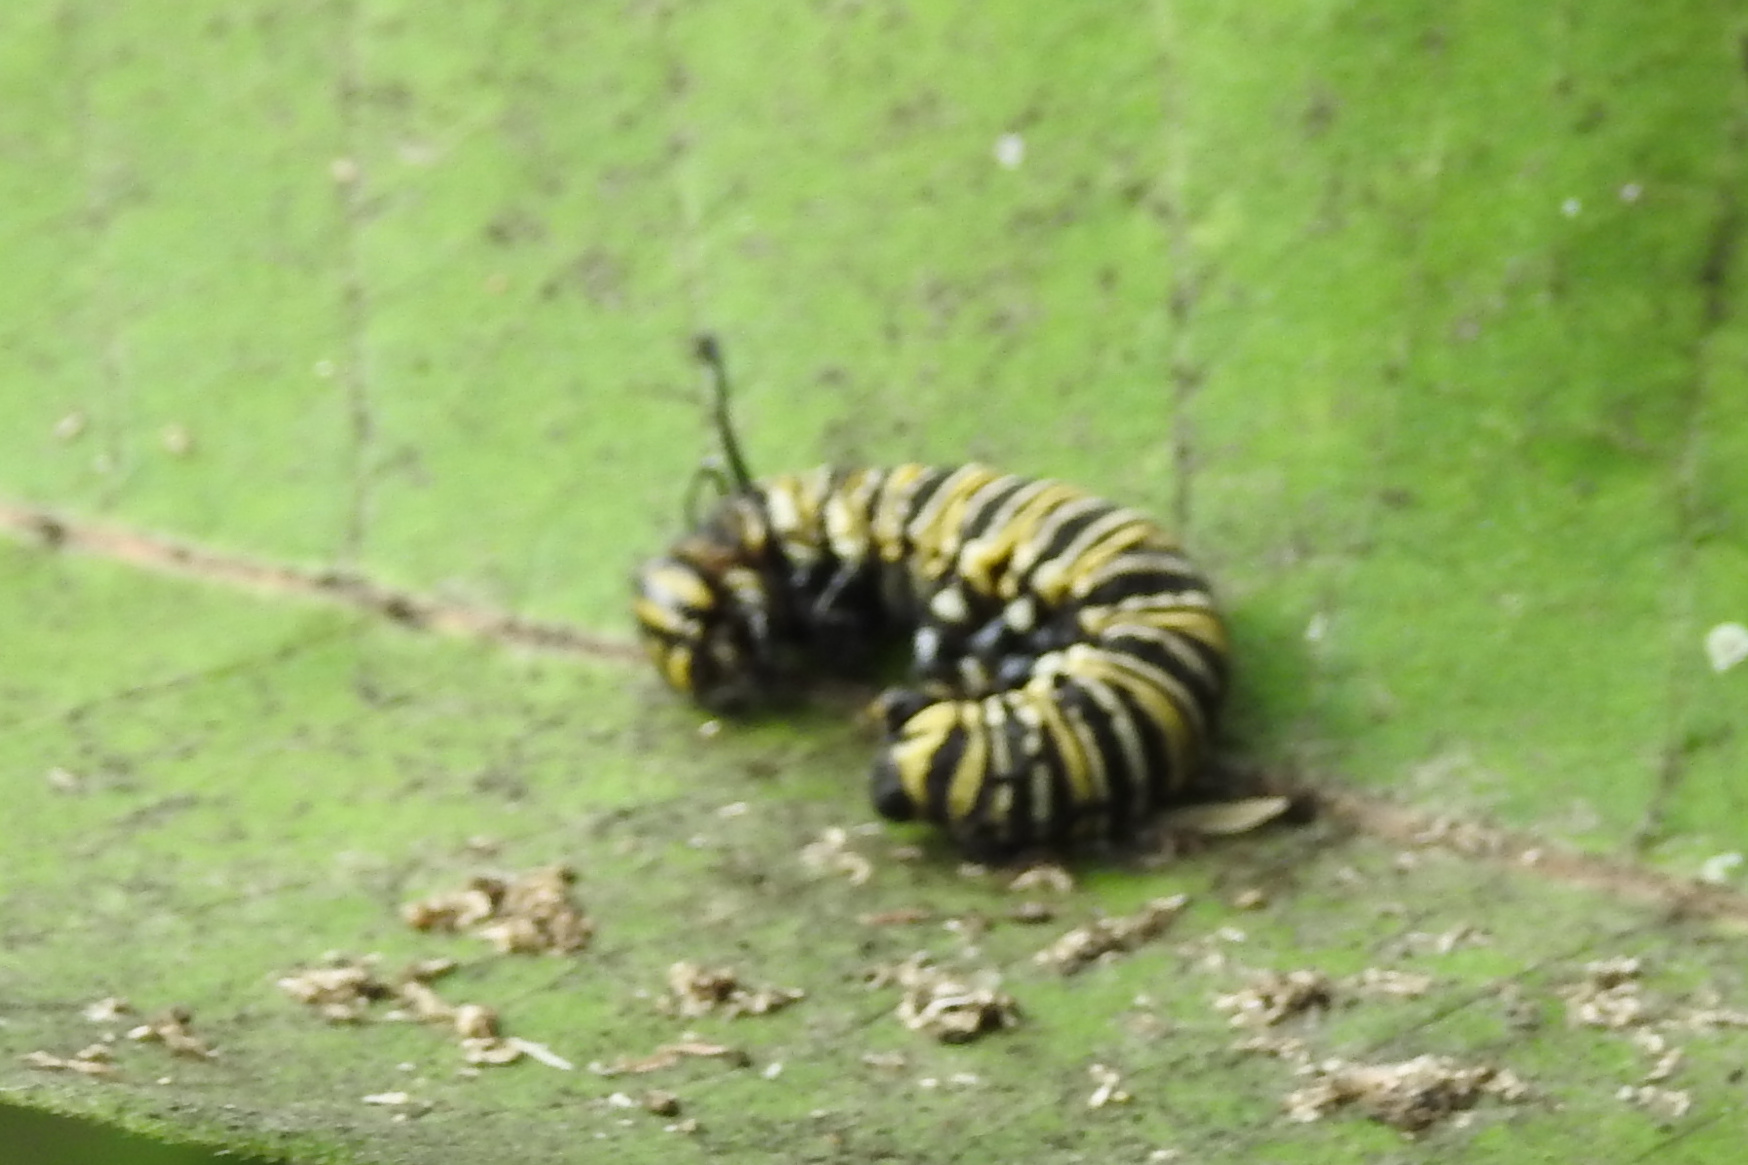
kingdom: Animalia
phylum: Arthropoda
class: Insecta
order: Lepidoptera
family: Nymphalidae
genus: Danaus
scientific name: Danaus plexippus
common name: Monarch
